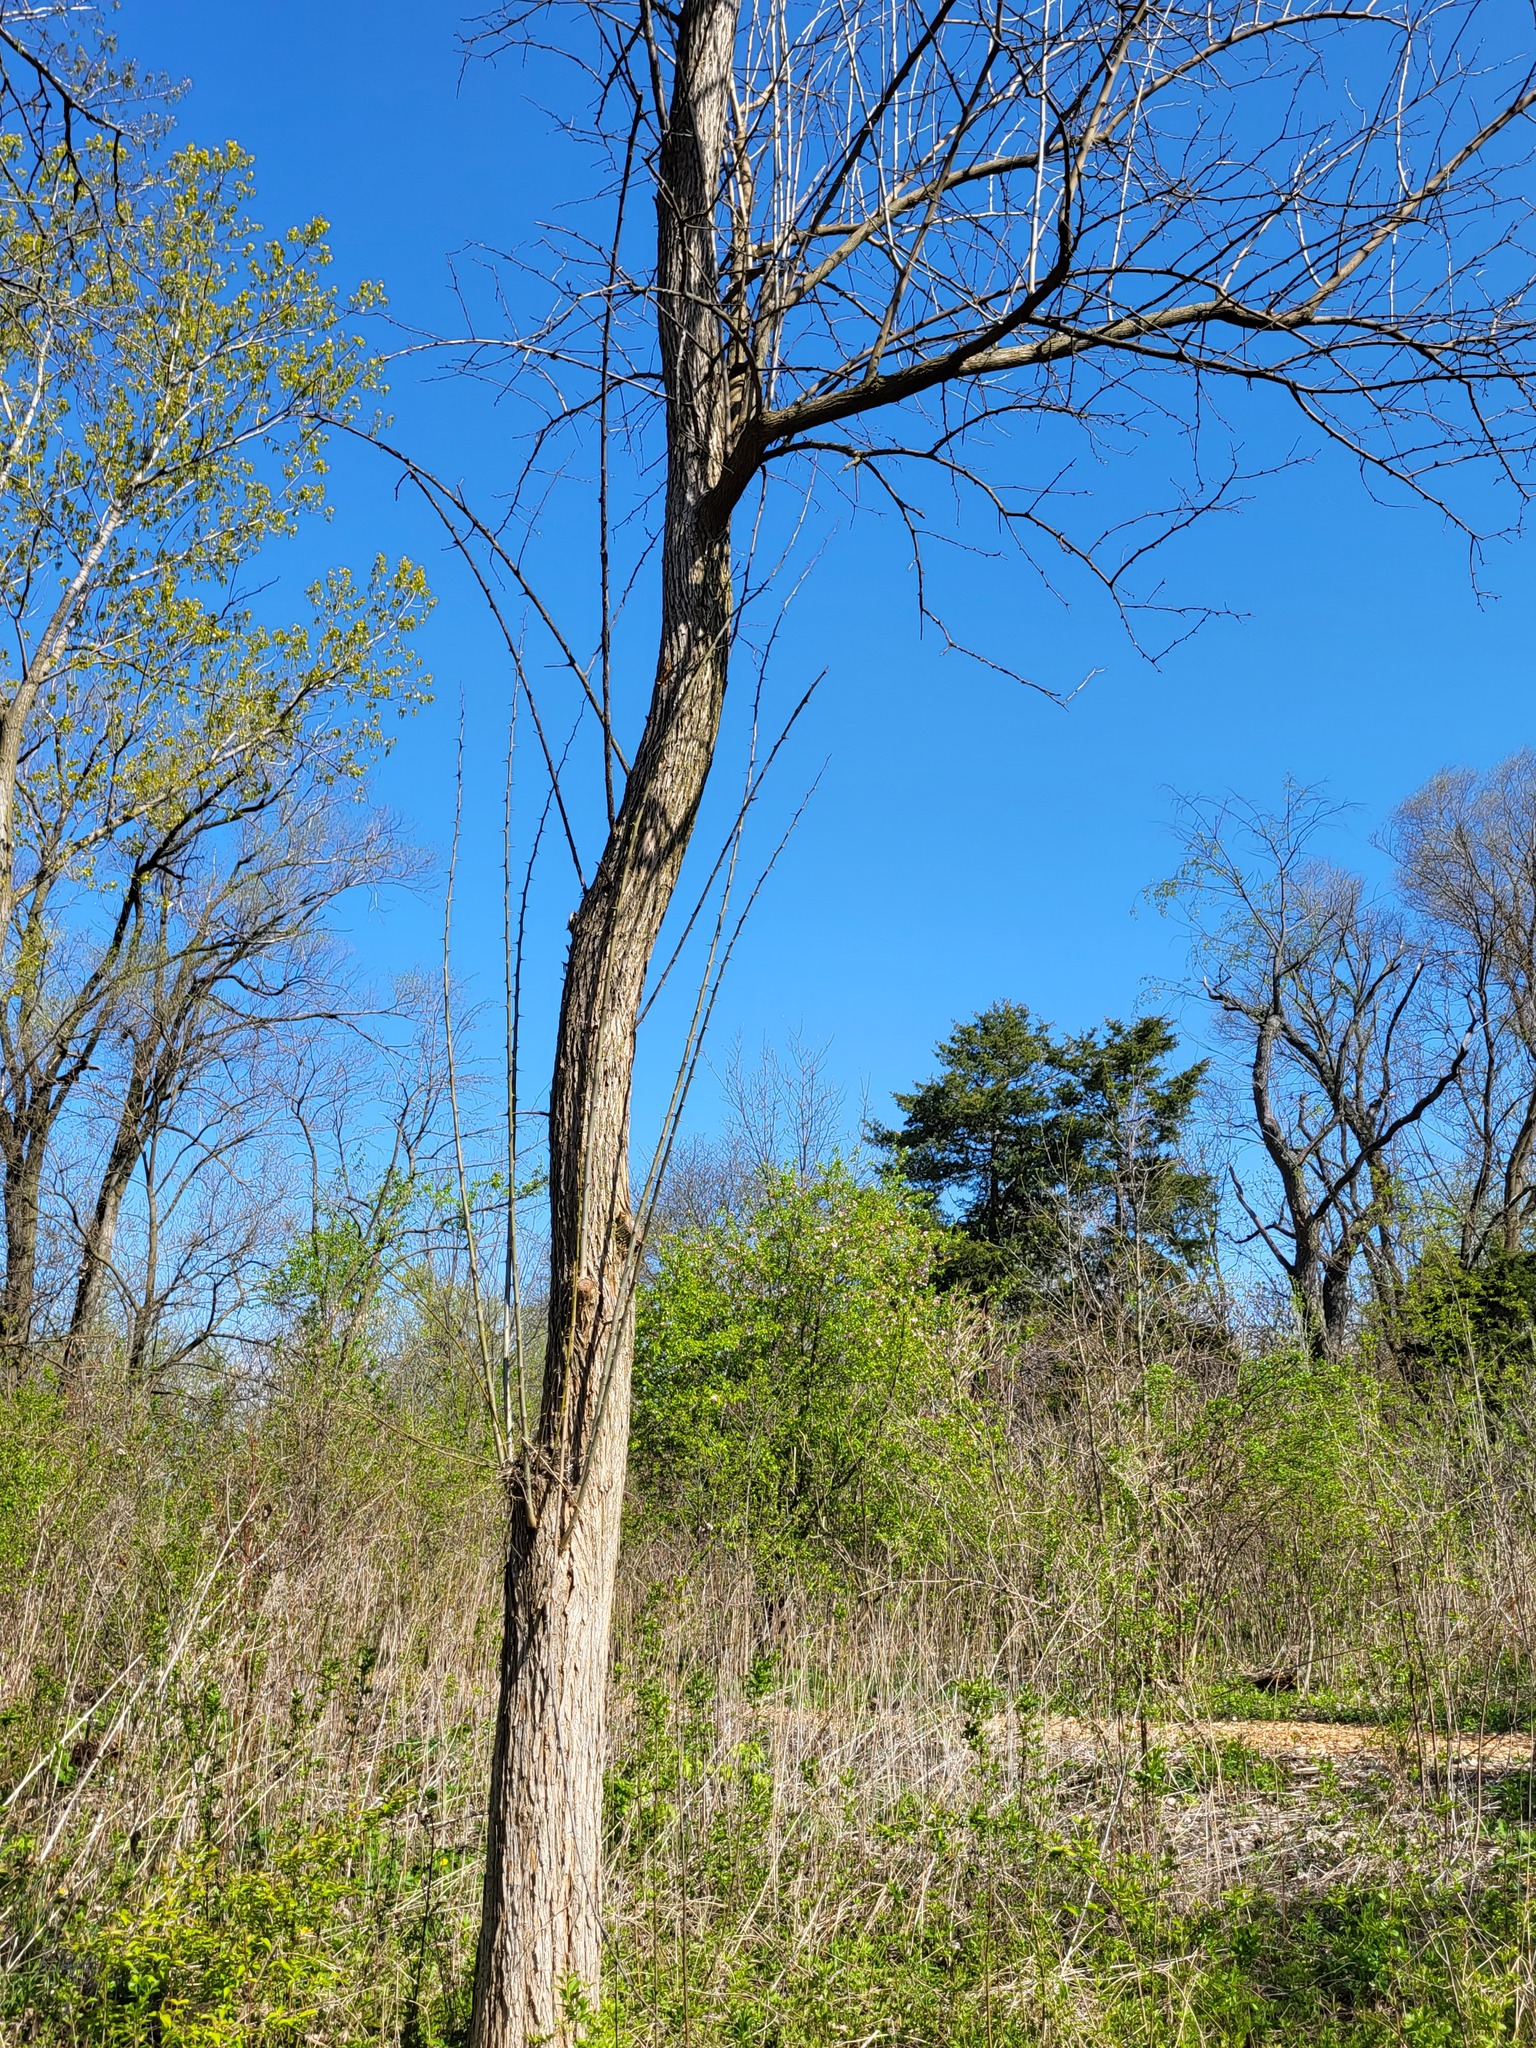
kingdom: Plantae
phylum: Tracheophyta
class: Magnoliopsida
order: Rosales
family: Moraceae
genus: Maclura
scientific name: Maclura pomifera
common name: Osage-orange
